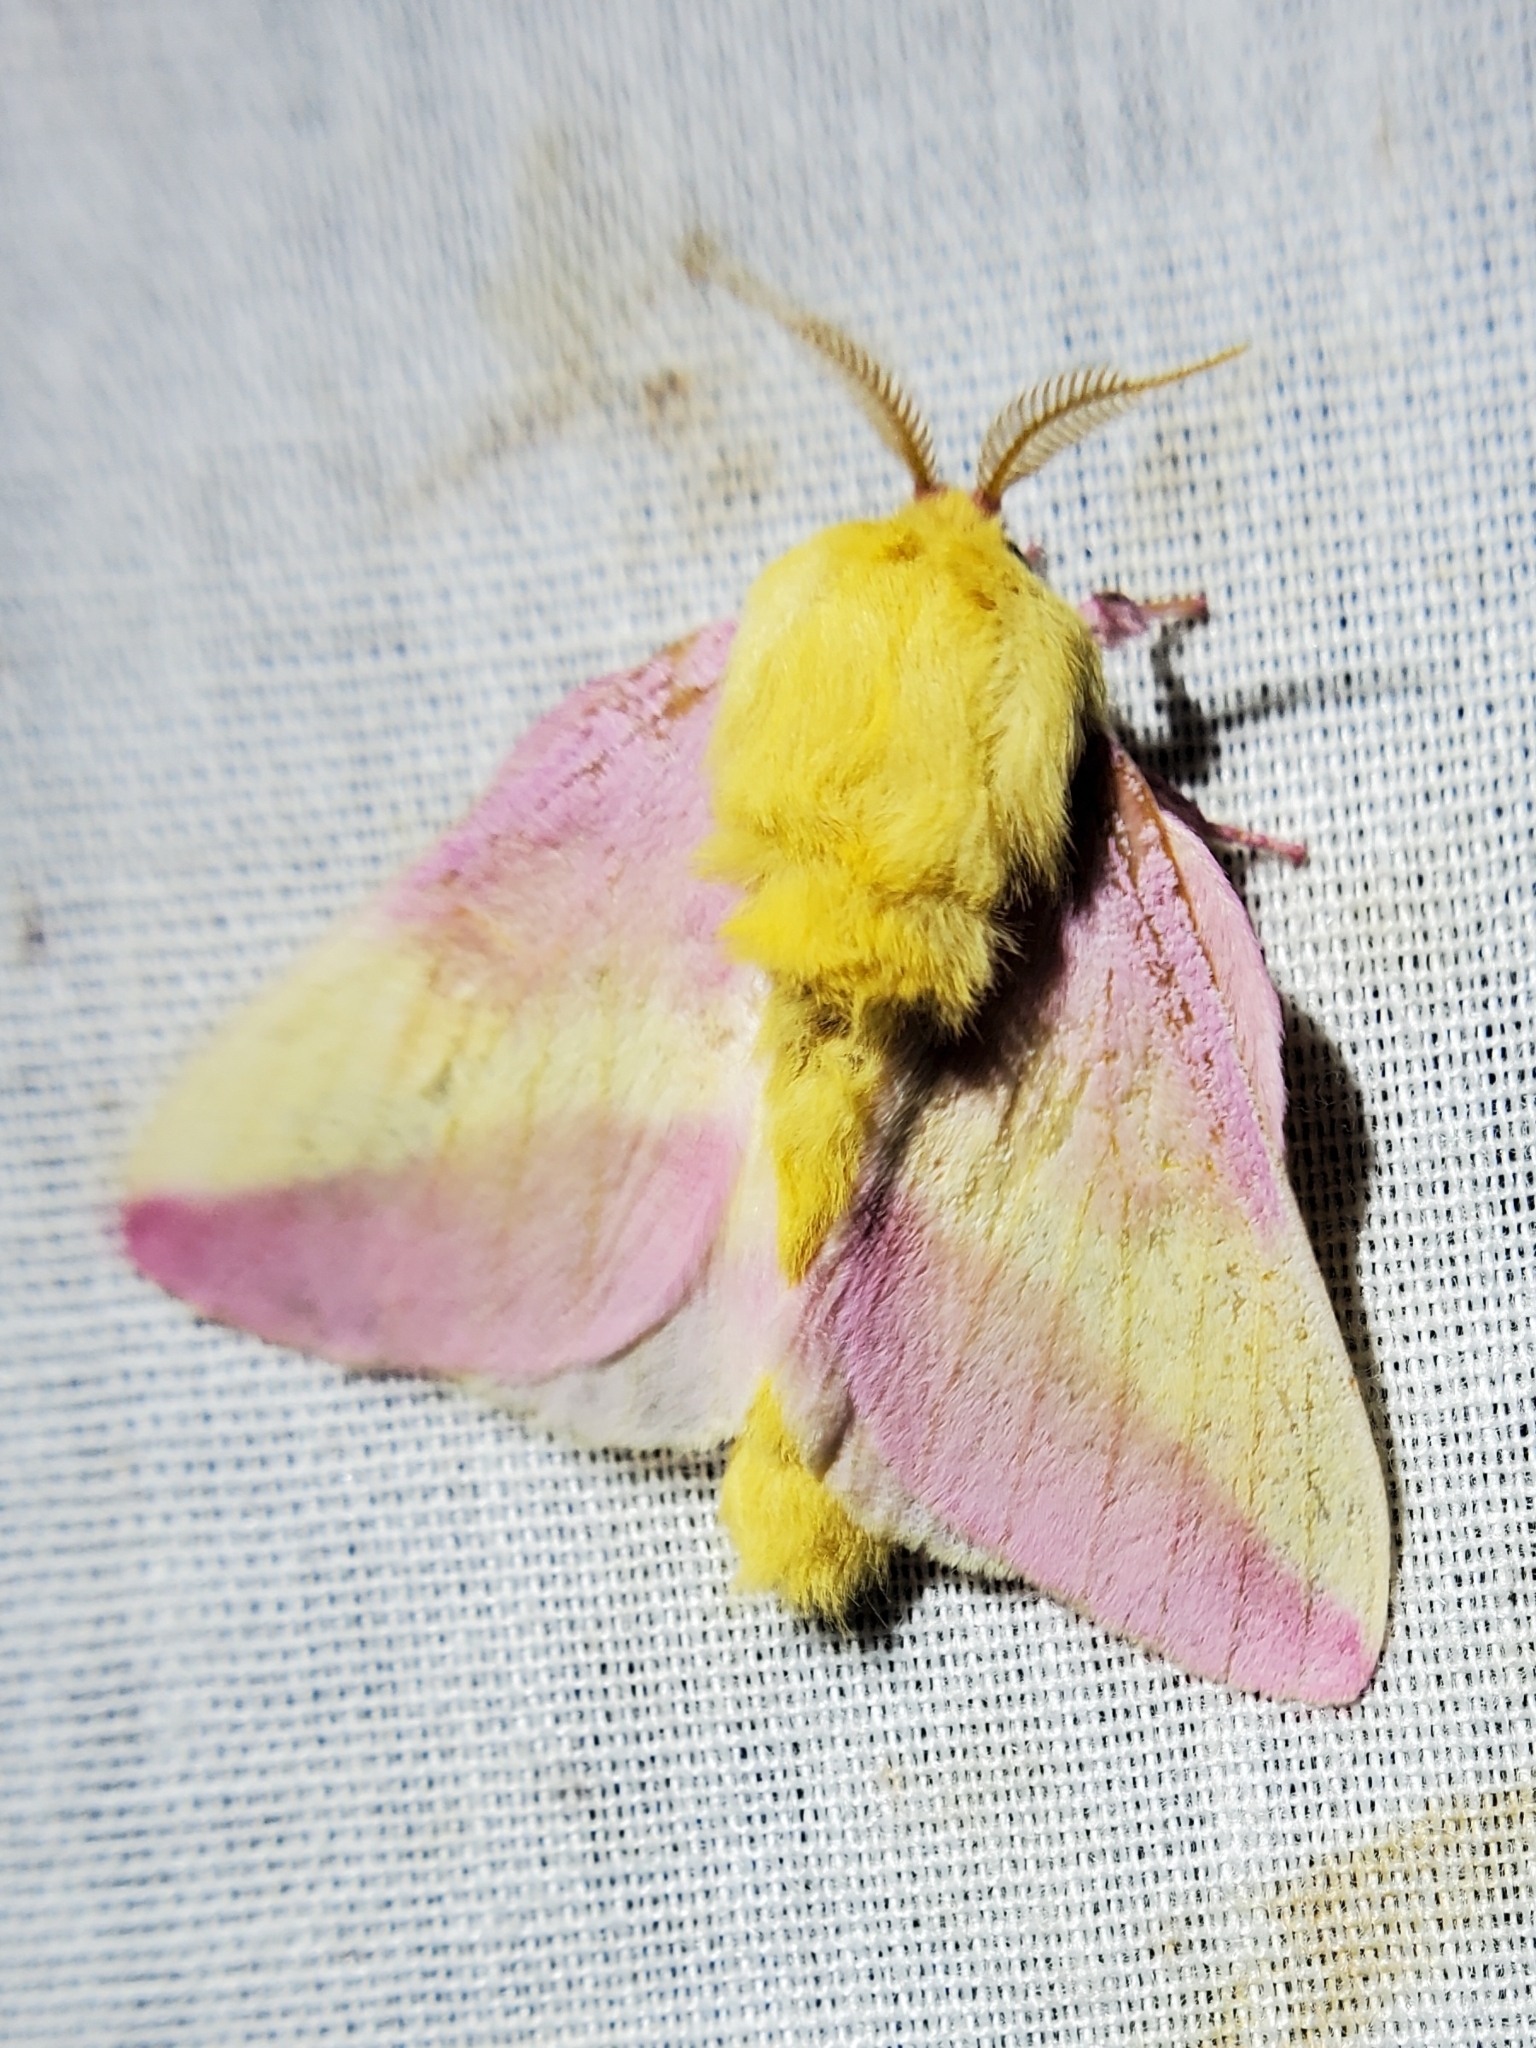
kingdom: Animalia
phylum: Arthropoda
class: Insecta
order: Lepidoptera
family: Saturniidae
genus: Dryocampa
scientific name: Dryocampa rubicunda
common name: Rosy maple moth
